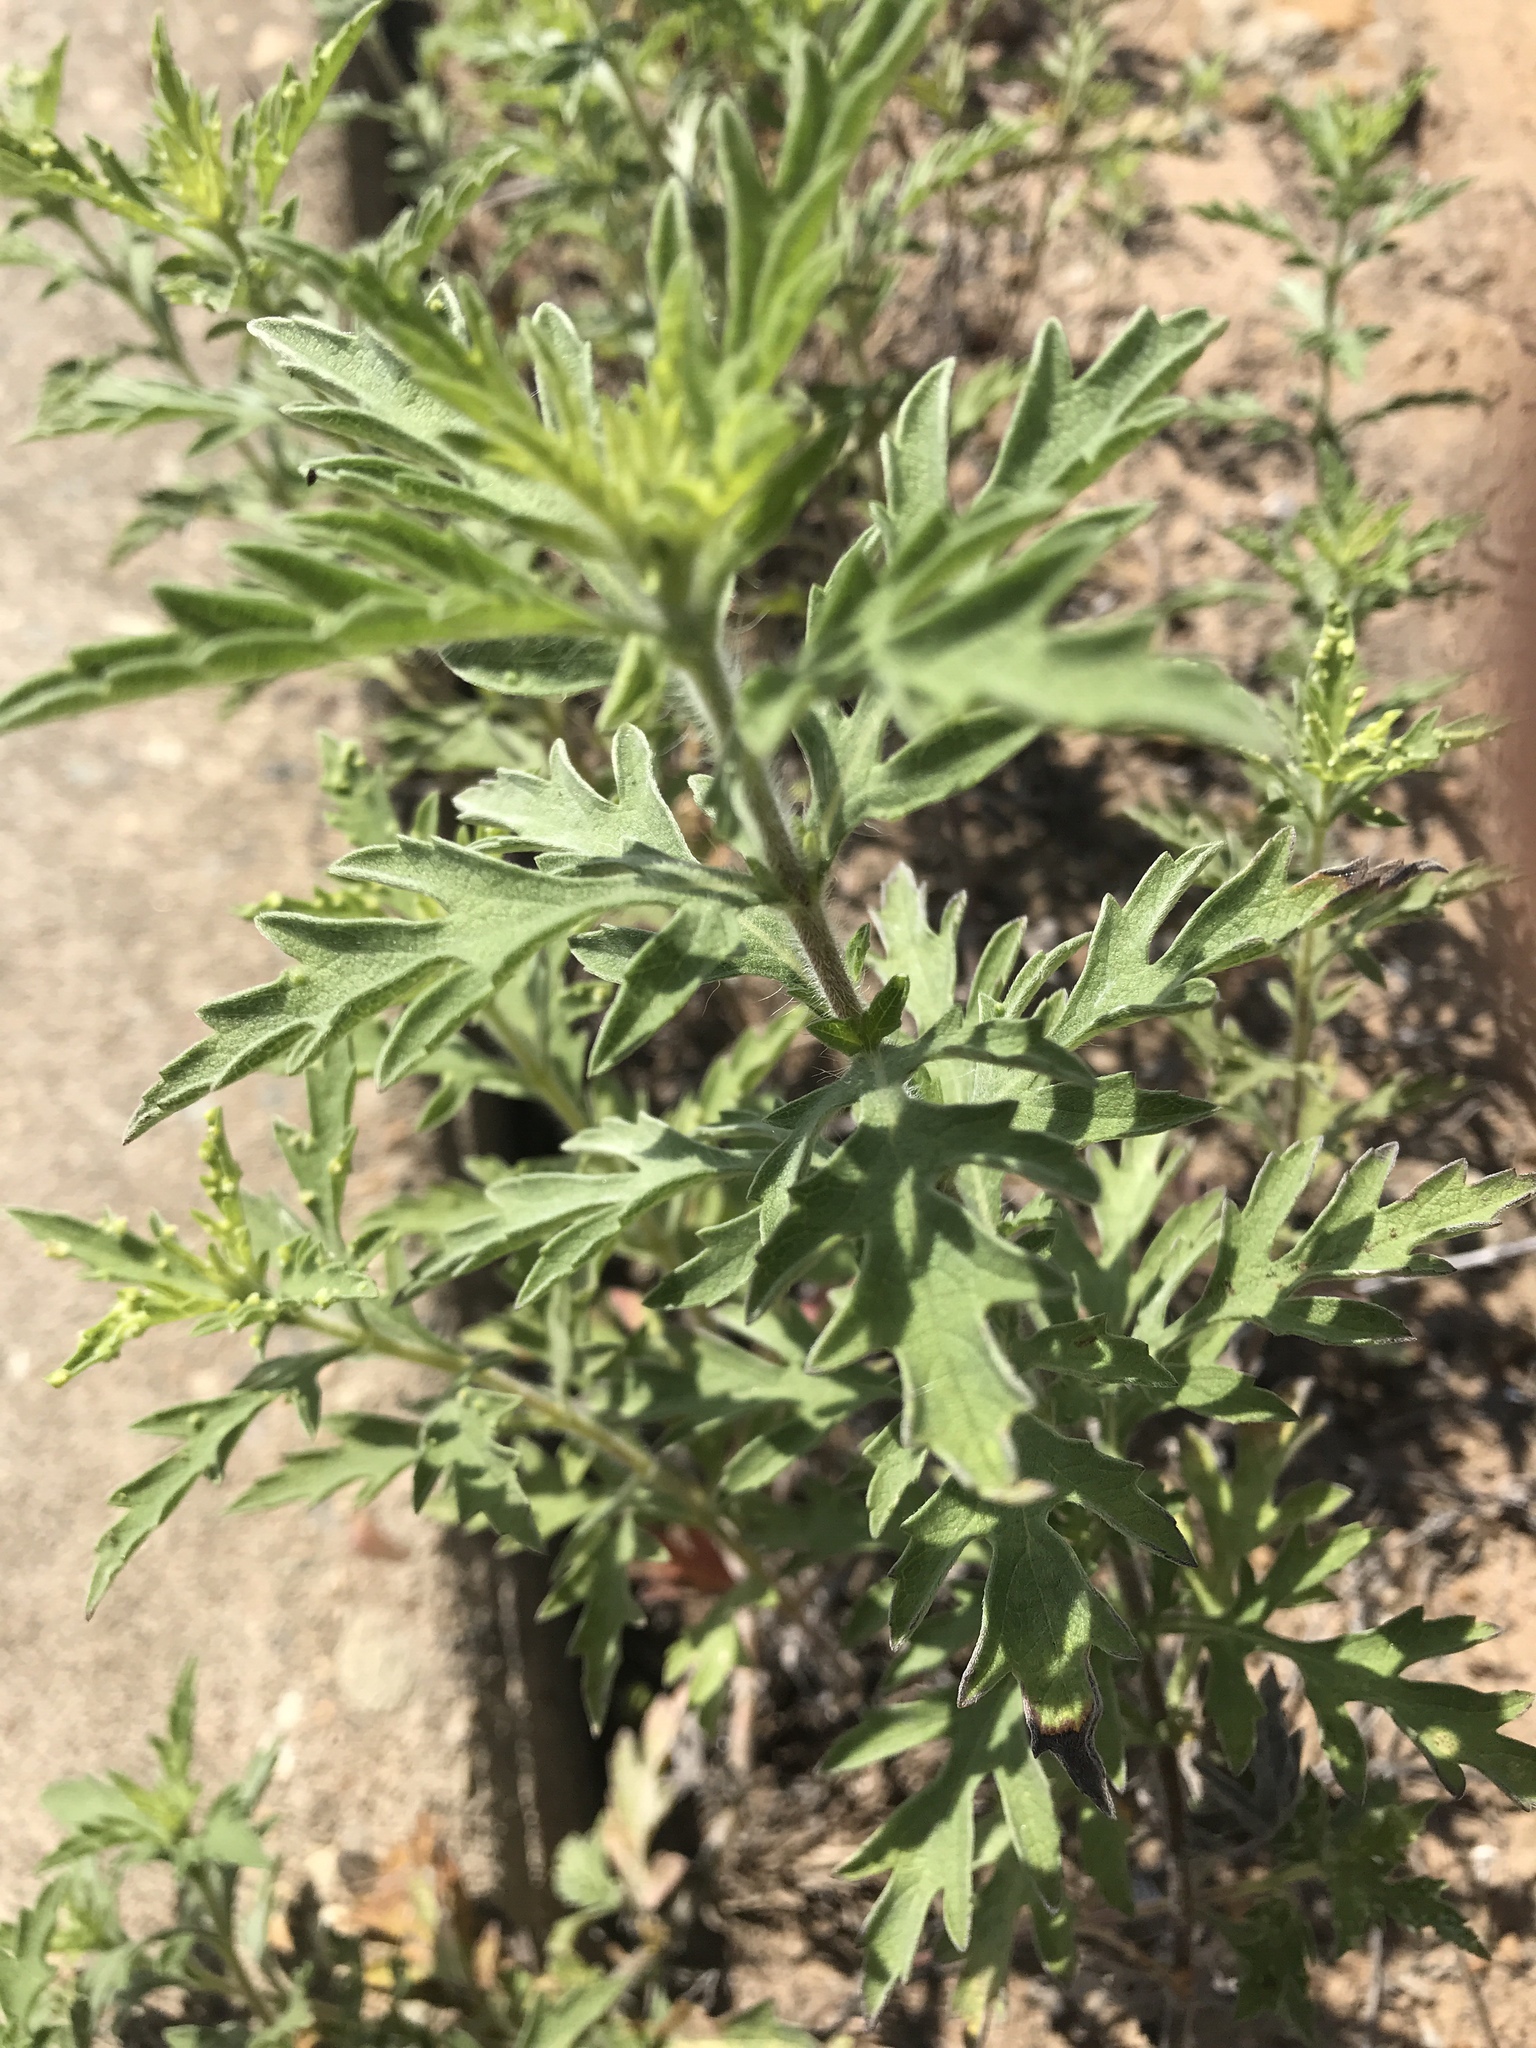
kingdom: Plantae
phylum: Tracheophyta
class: Magnoliopsida
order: Asterales
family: Asteraceae
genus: Ambrosia
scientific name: Ambrosia psilostachya
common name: Perennial ragweed
